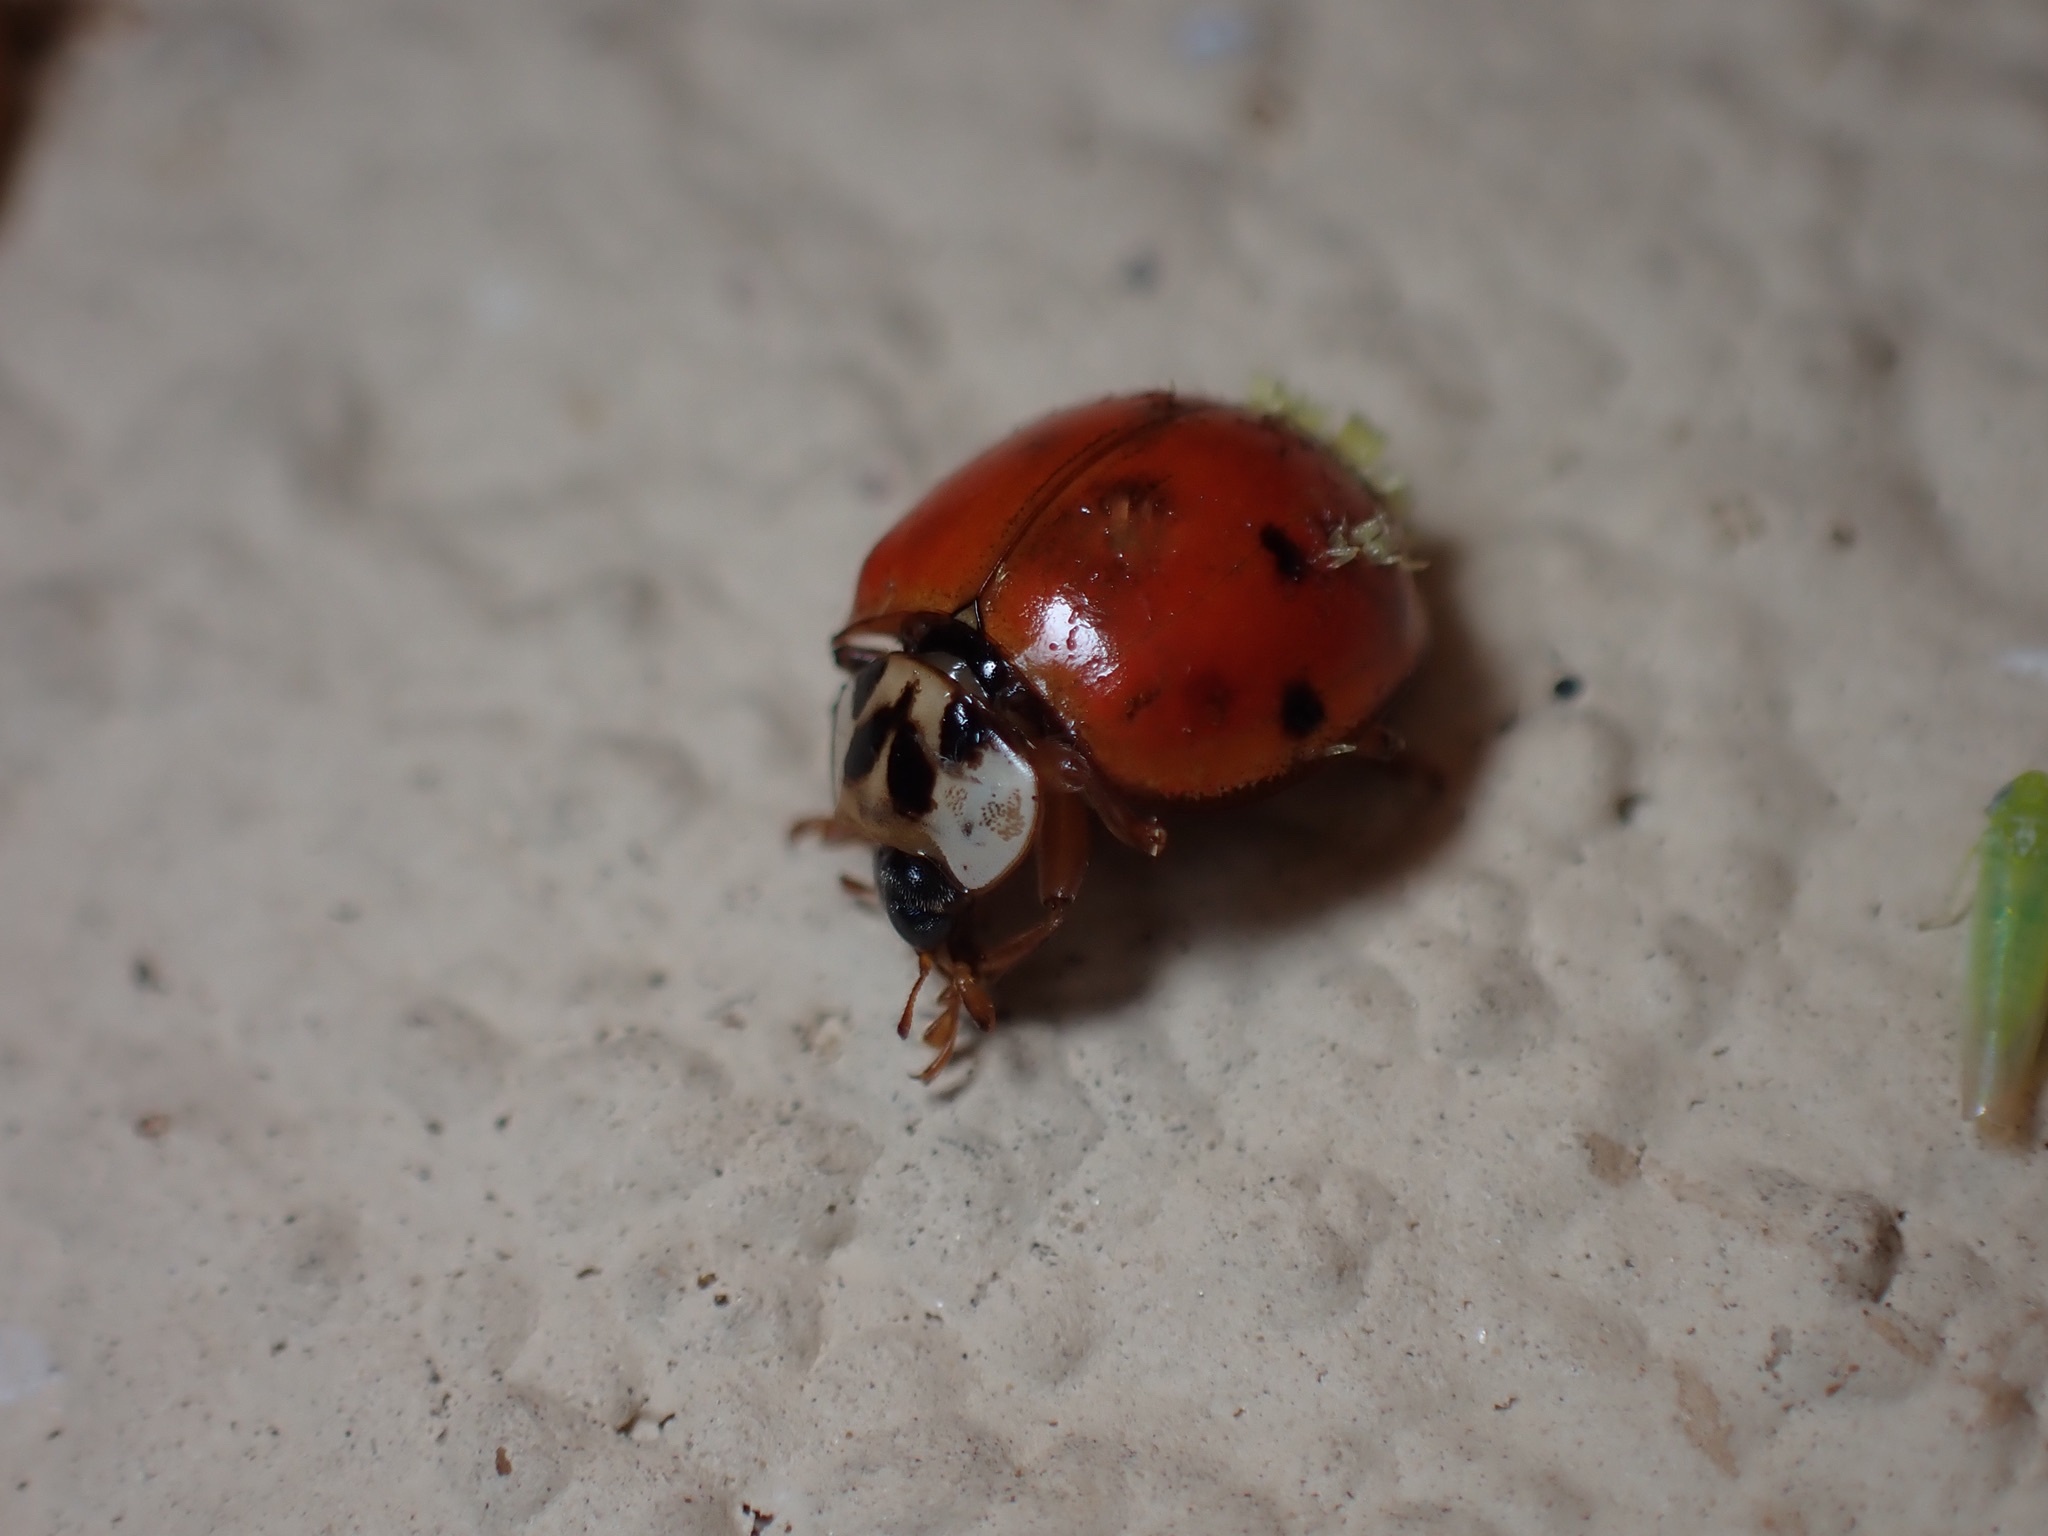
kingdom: Animalia
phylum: Arthropoda
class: Insecta
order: Coleoptera
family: Coccinellidae
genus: Harmonia
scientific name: Harmonia axyridis
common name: Harlequin ladybird
